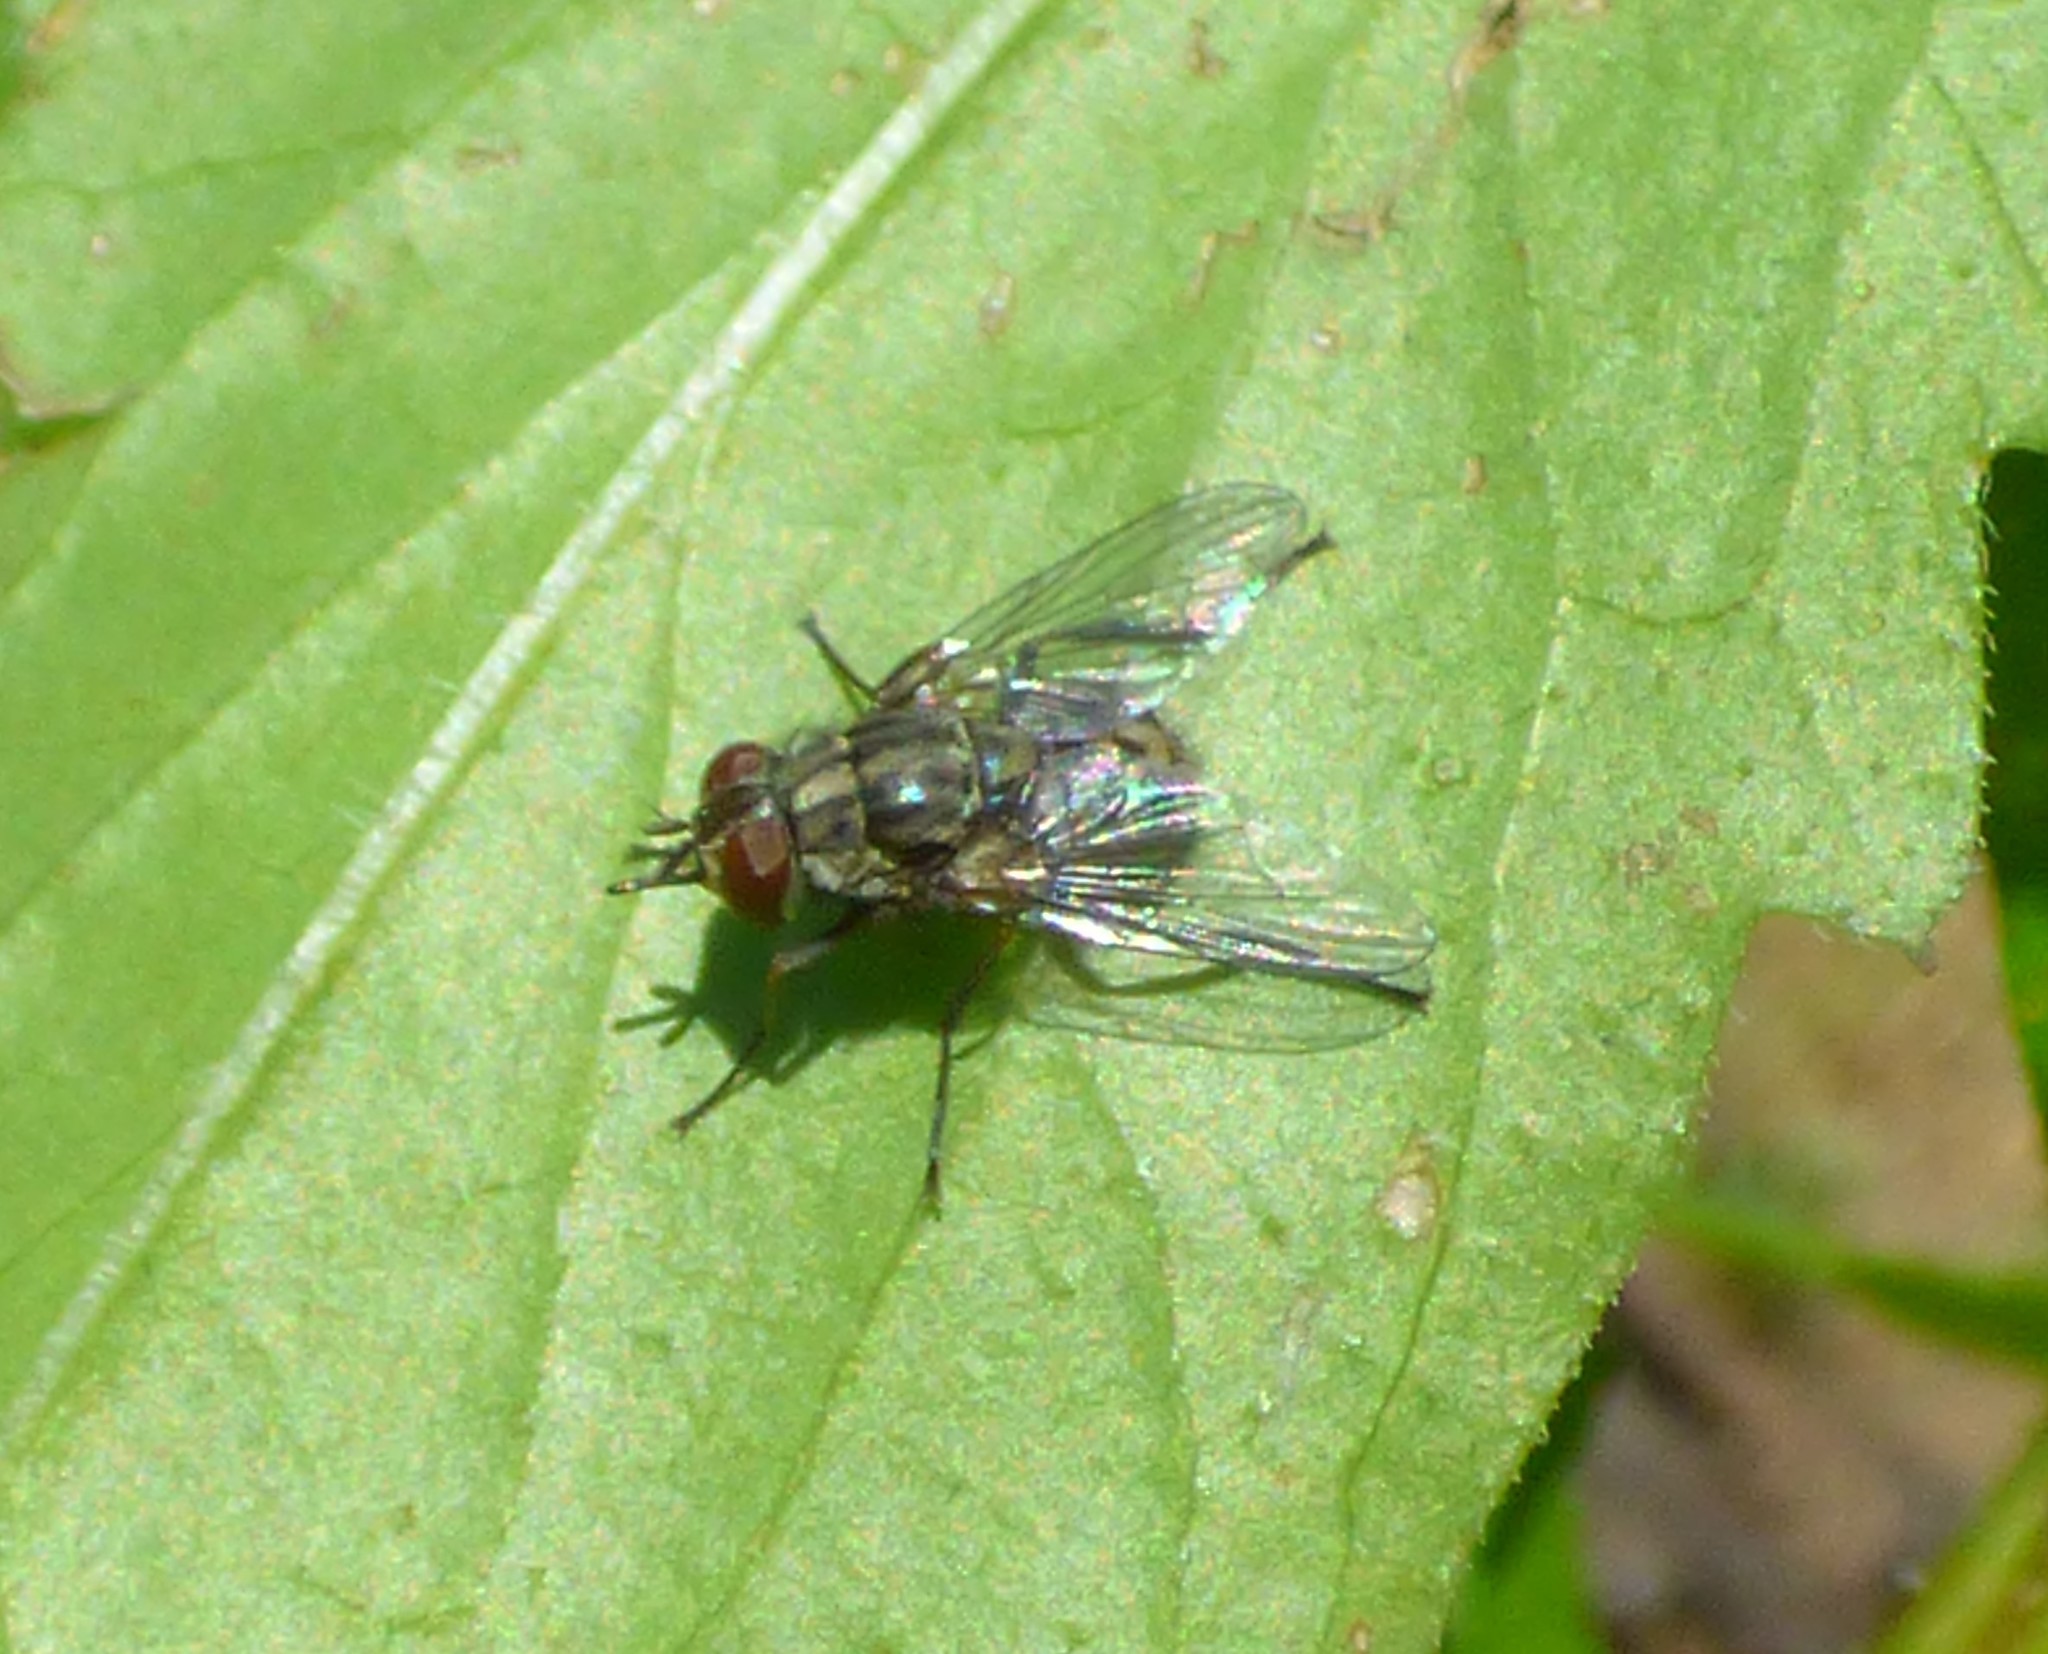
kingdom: Animalia
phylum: Arthropoda
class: Insecta
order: Diptera
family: Muscidae
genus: Stomoxys
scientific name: Stomoxys calcitrans
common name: Stable fly
